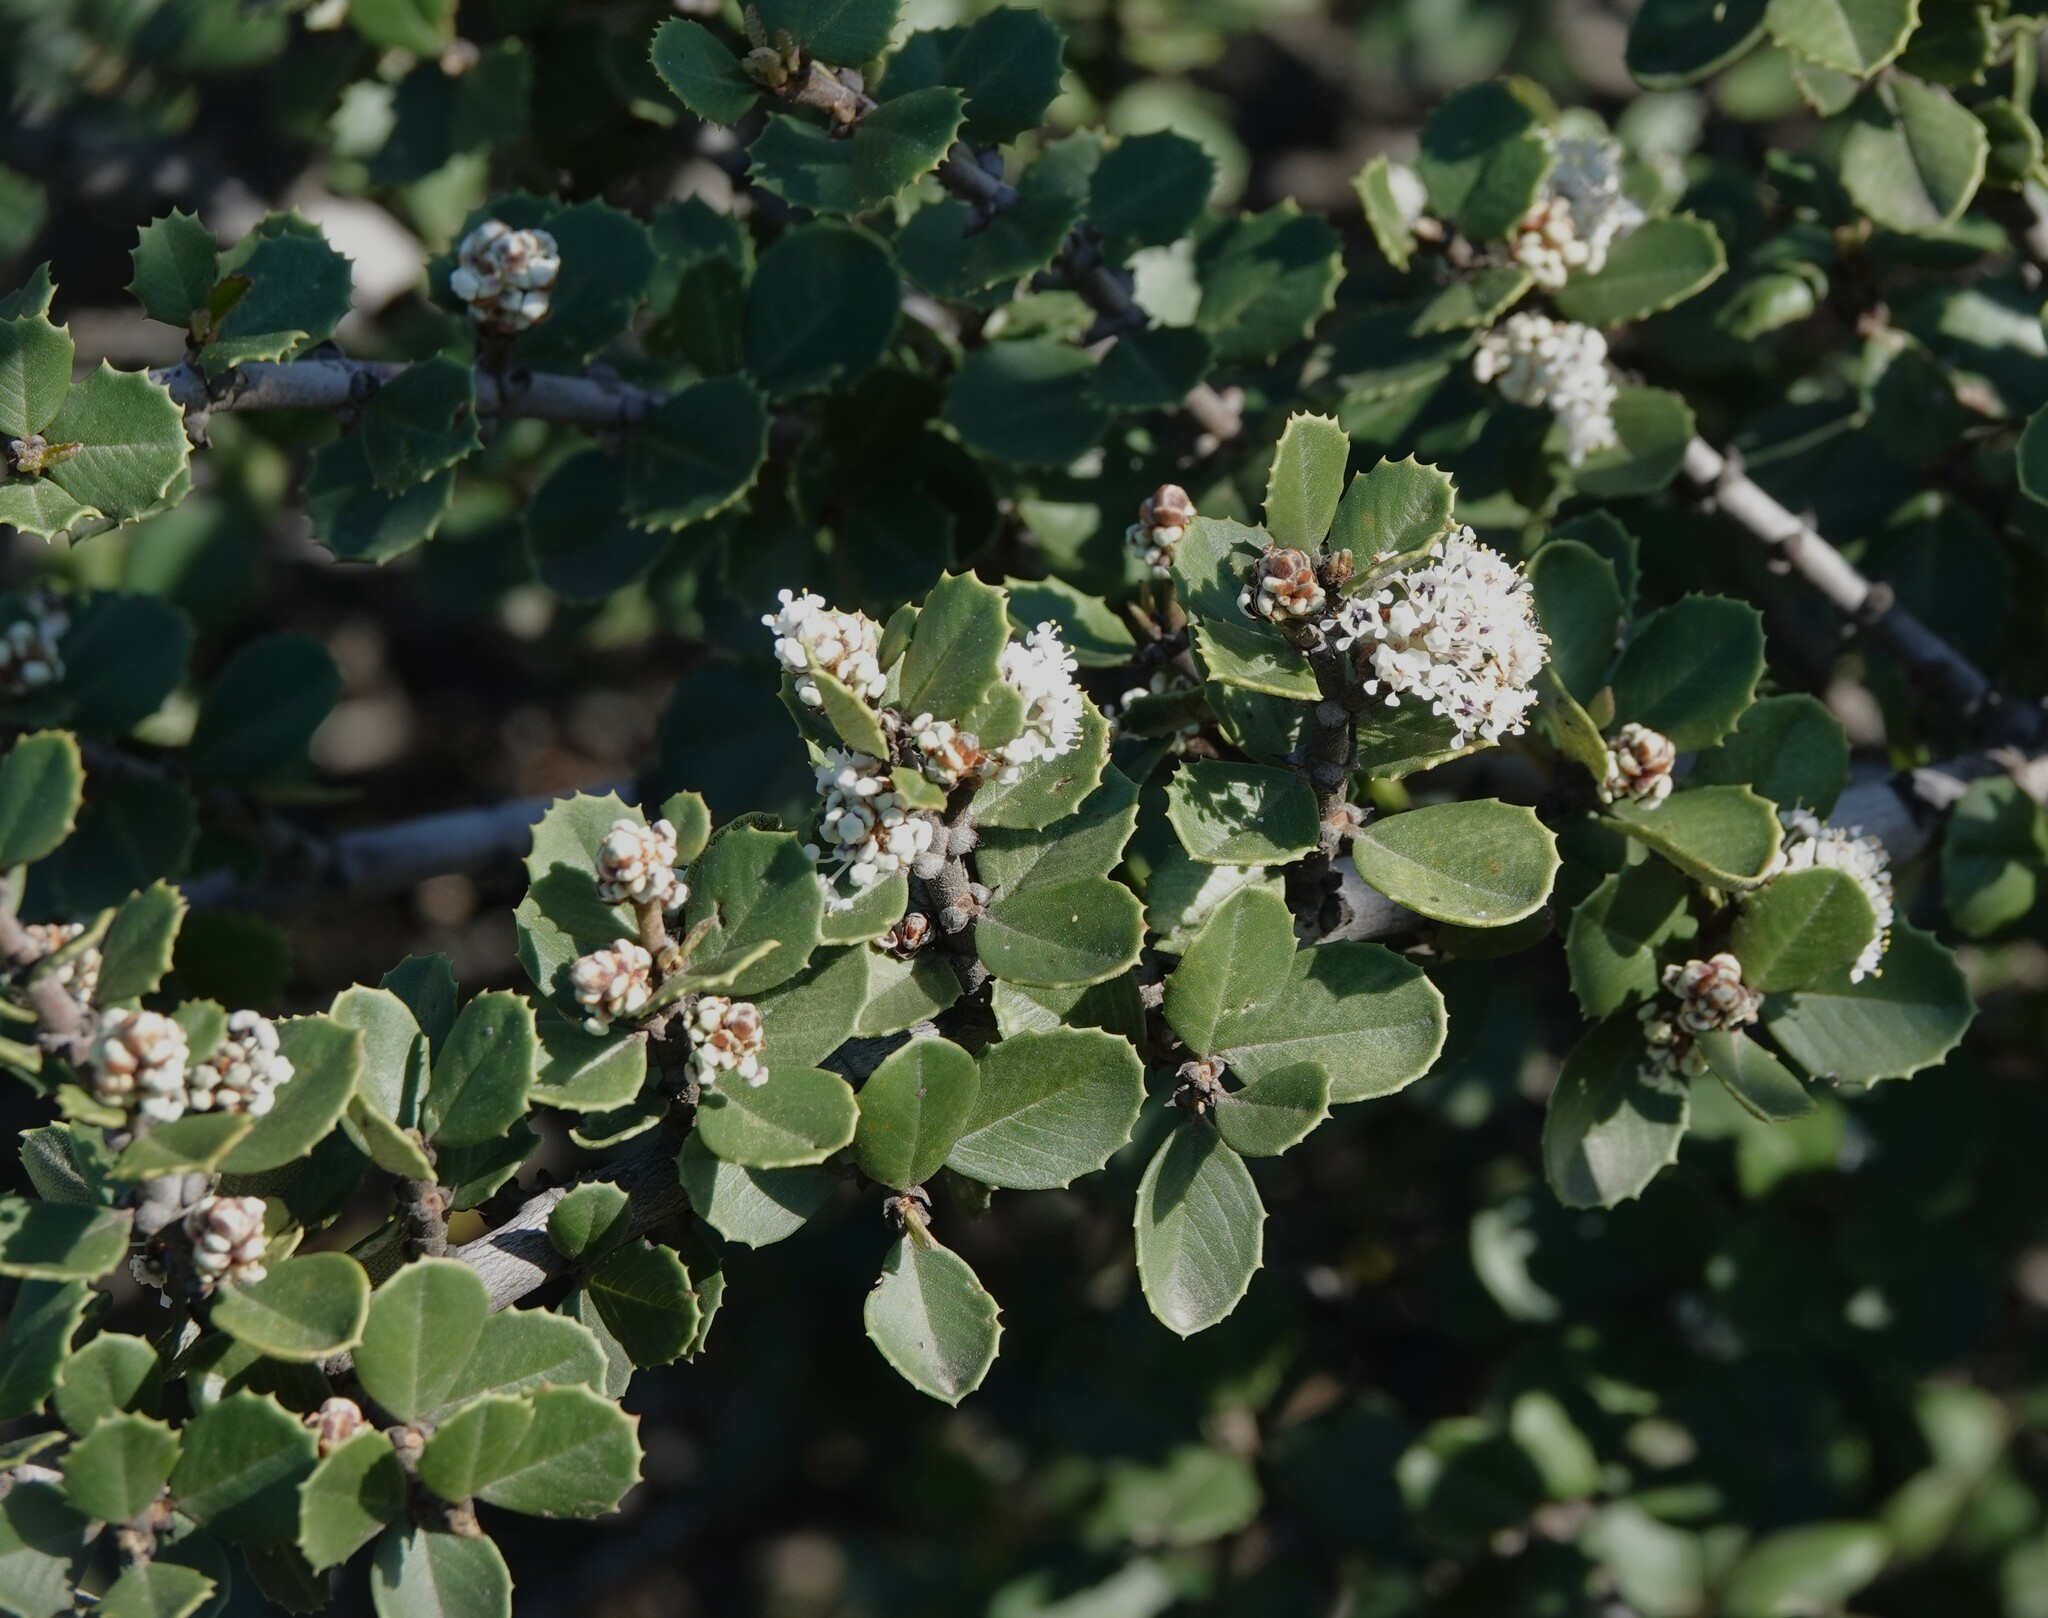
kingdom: Plantae
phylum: Tracheophyta
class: Magnoliopsida
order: Rosales
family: Rhamnaceae
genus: Ceanothus
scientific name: Ceanothus ferrisiae
